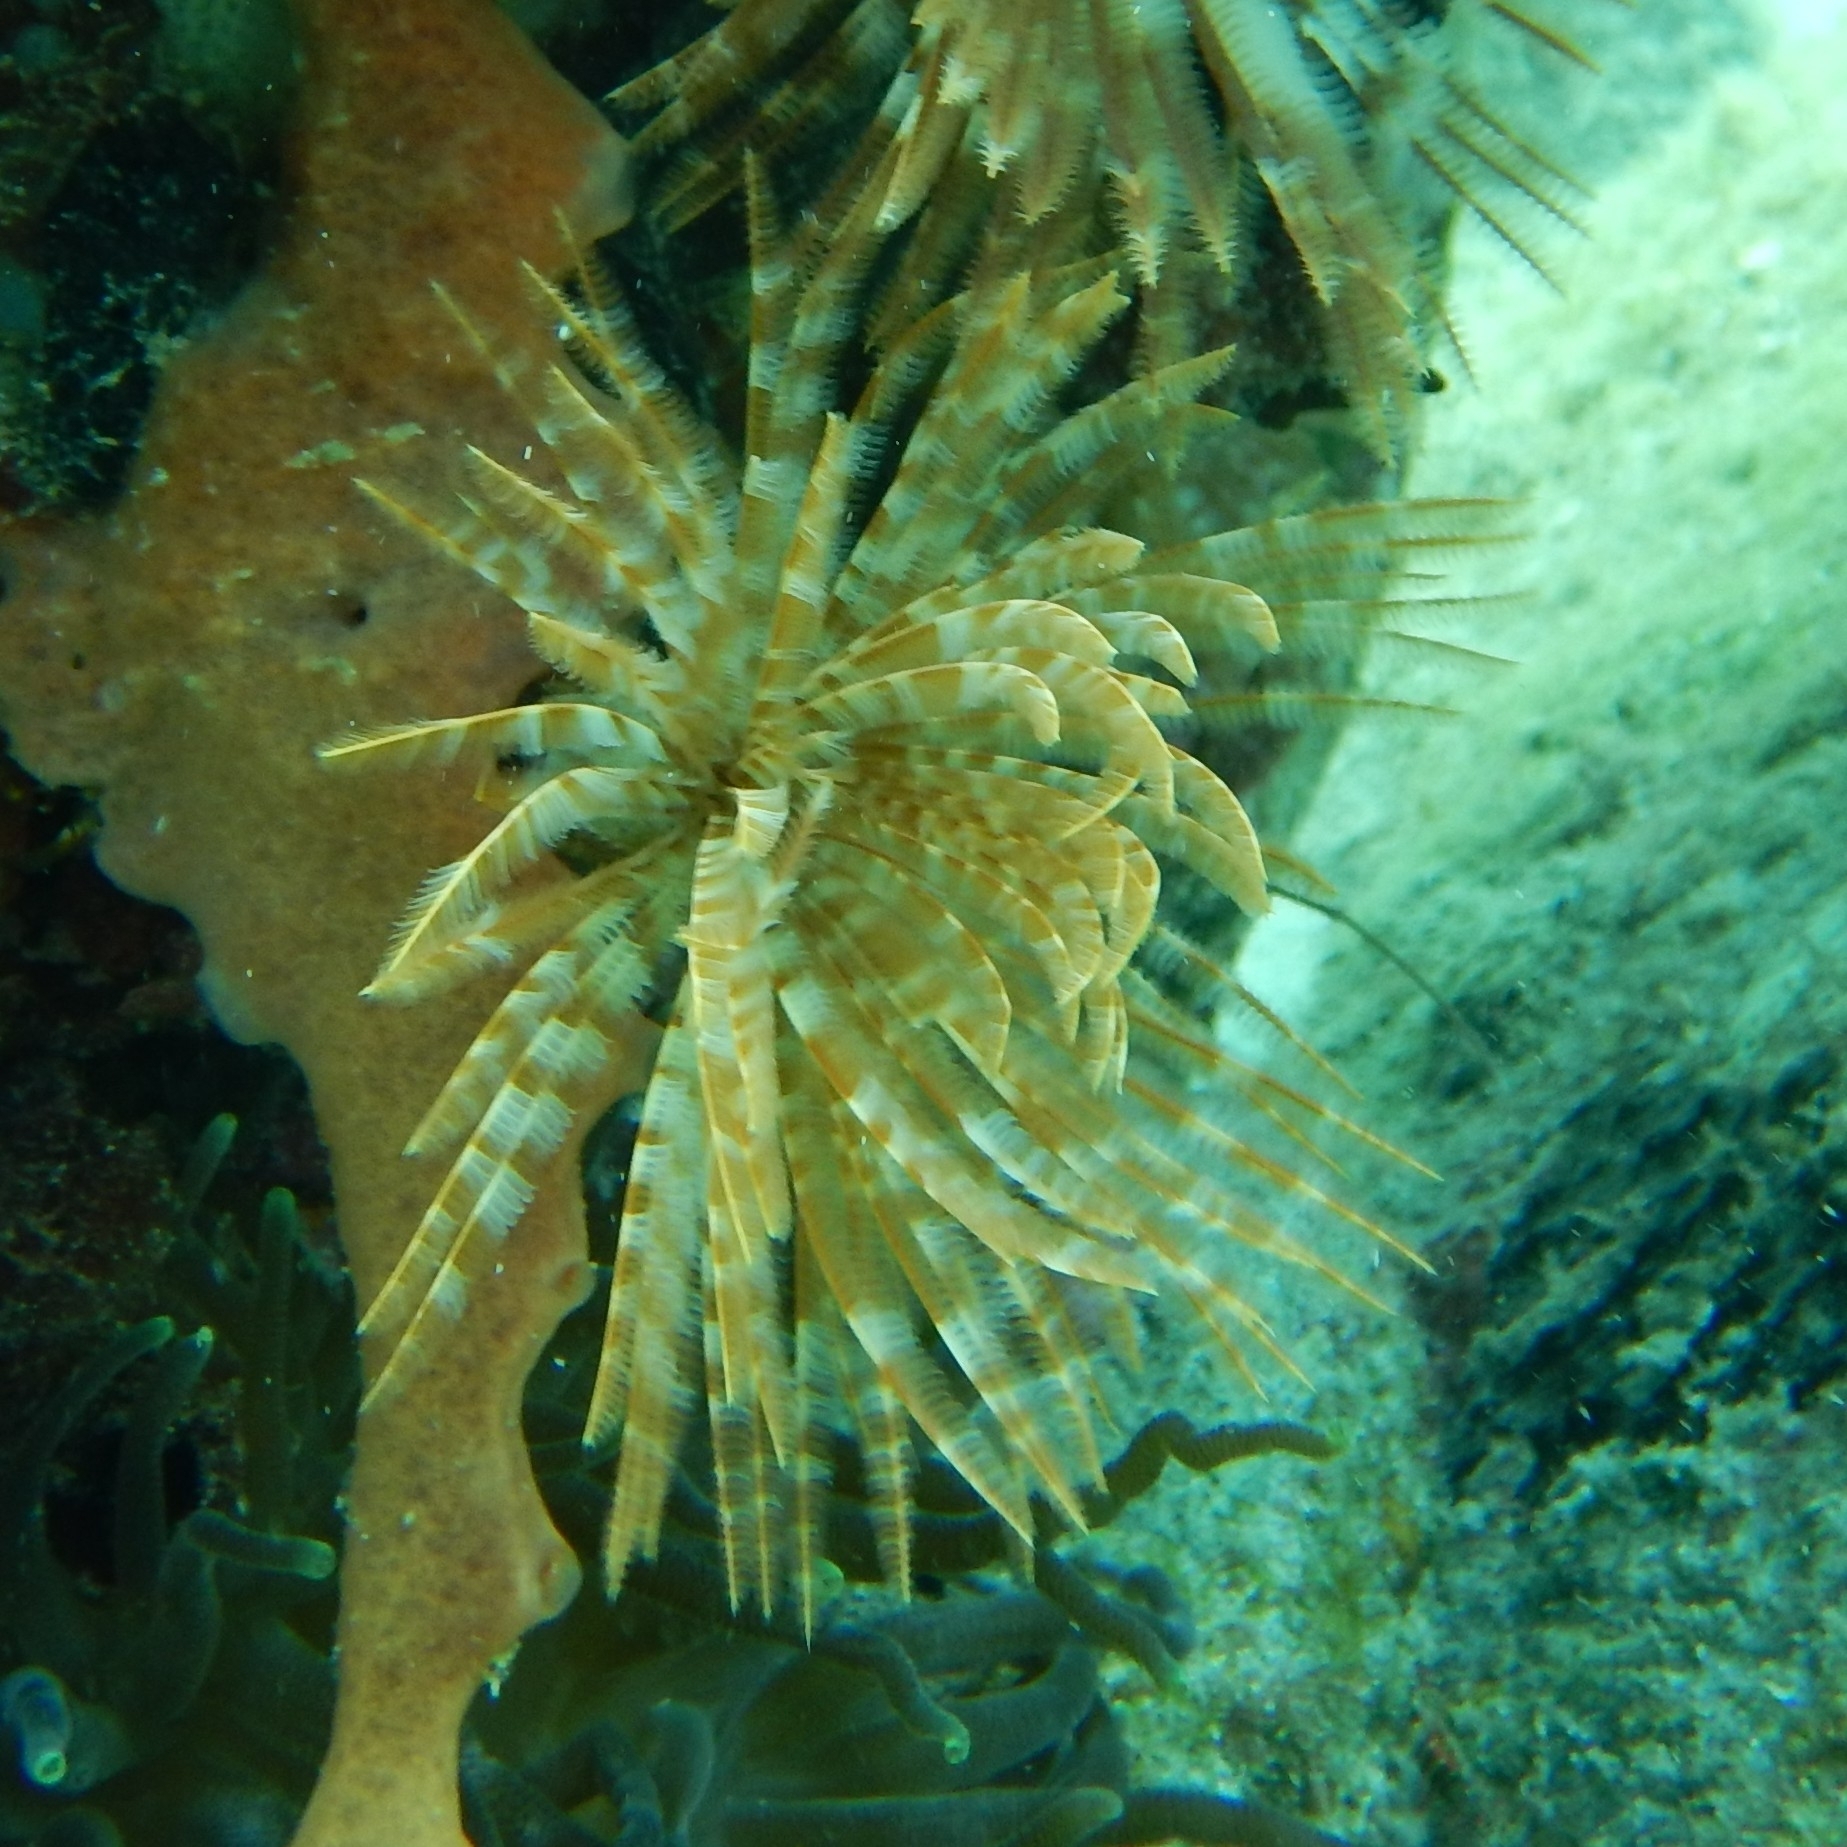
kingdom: Animalia
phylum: Annelida
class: Polychaeta
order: Sabellida
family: Sabellidae
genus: Sabellastarte
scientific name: Sabellastarte magnifica
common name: Giant feather-duster worm
